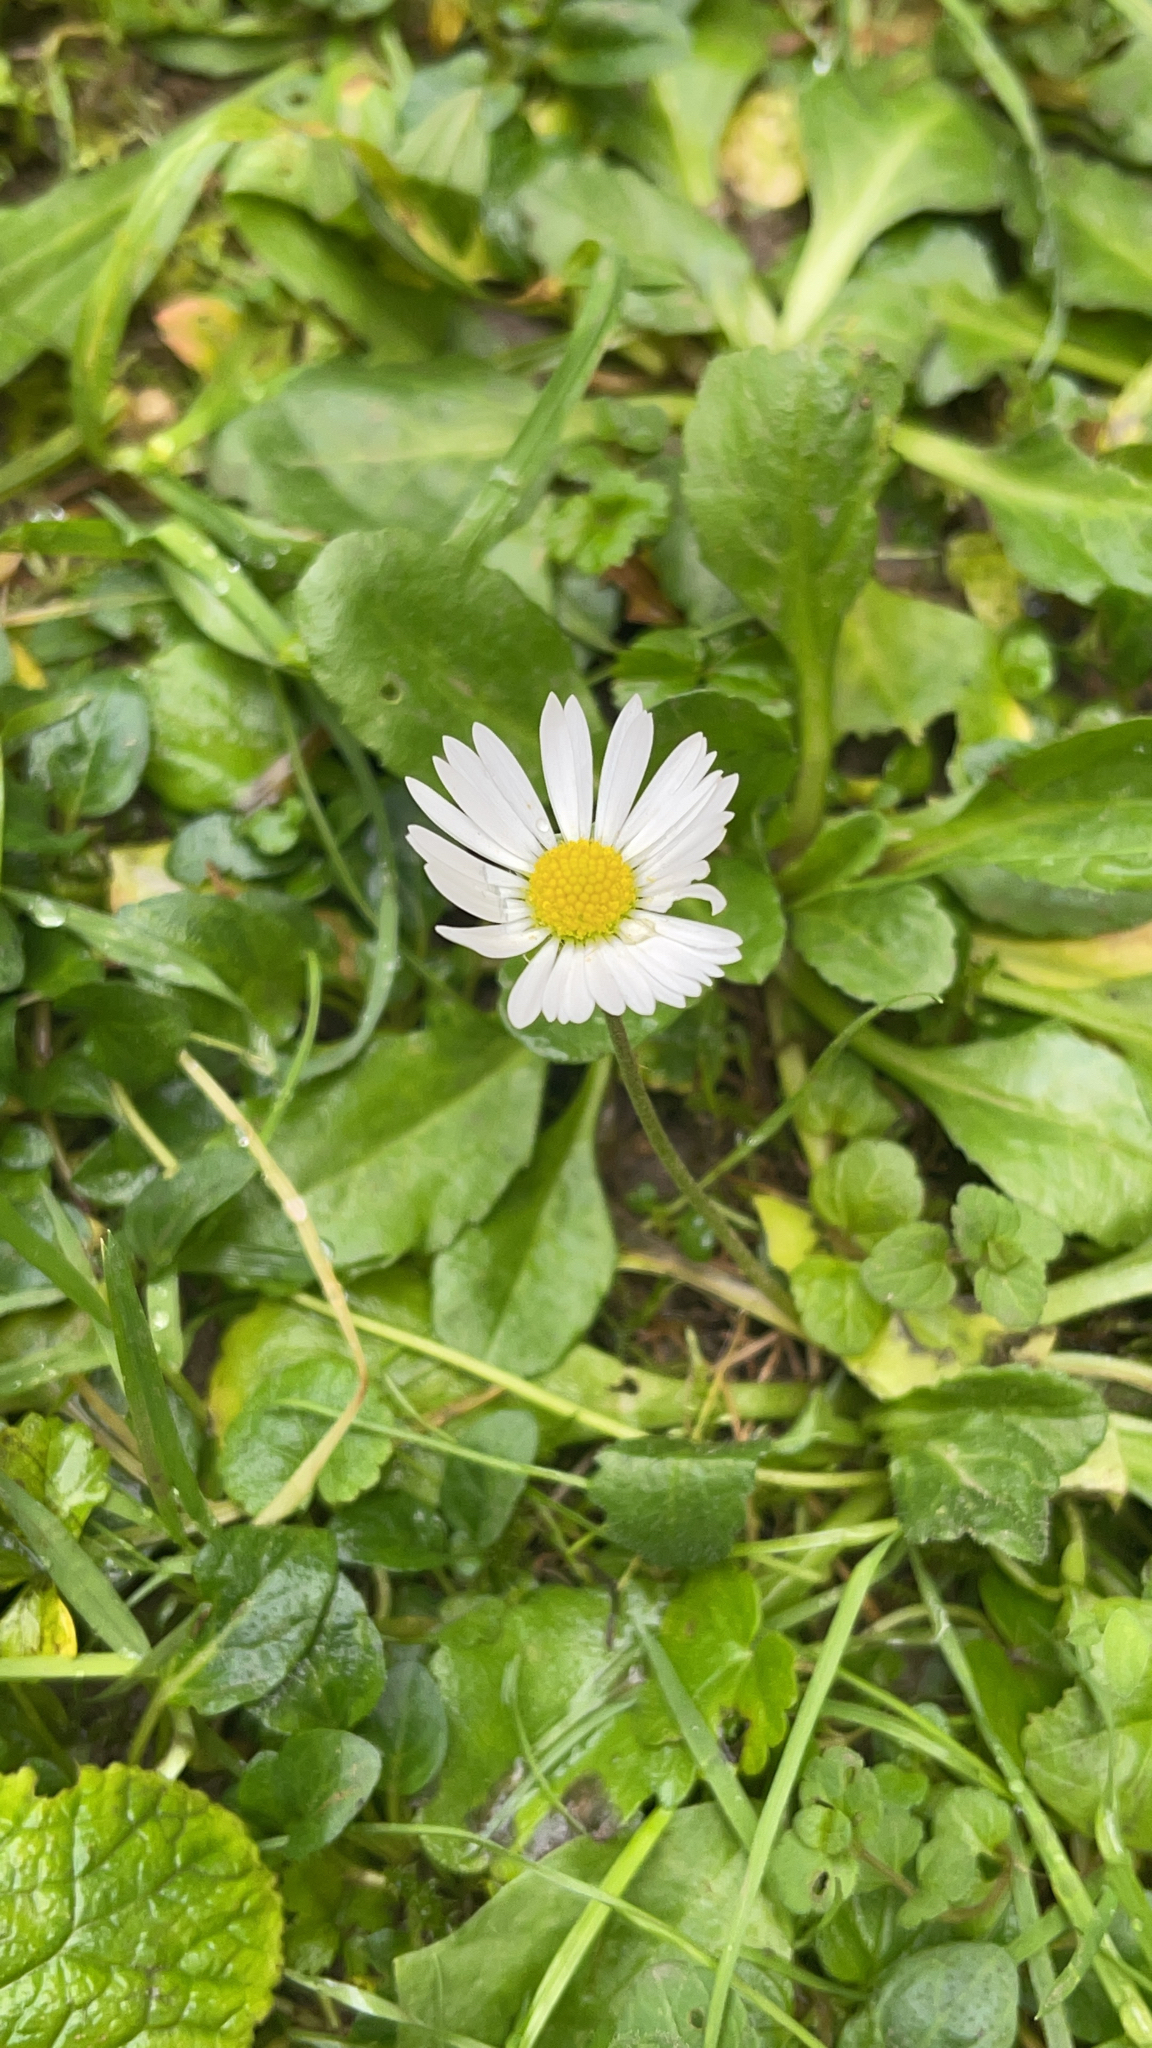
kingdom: Plantae
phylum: Tracheophyta
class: Magnoliopsida
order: Asterales
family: Asteraceae
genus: Bellis
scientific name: Bellis perennis
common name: Lawndaisy
